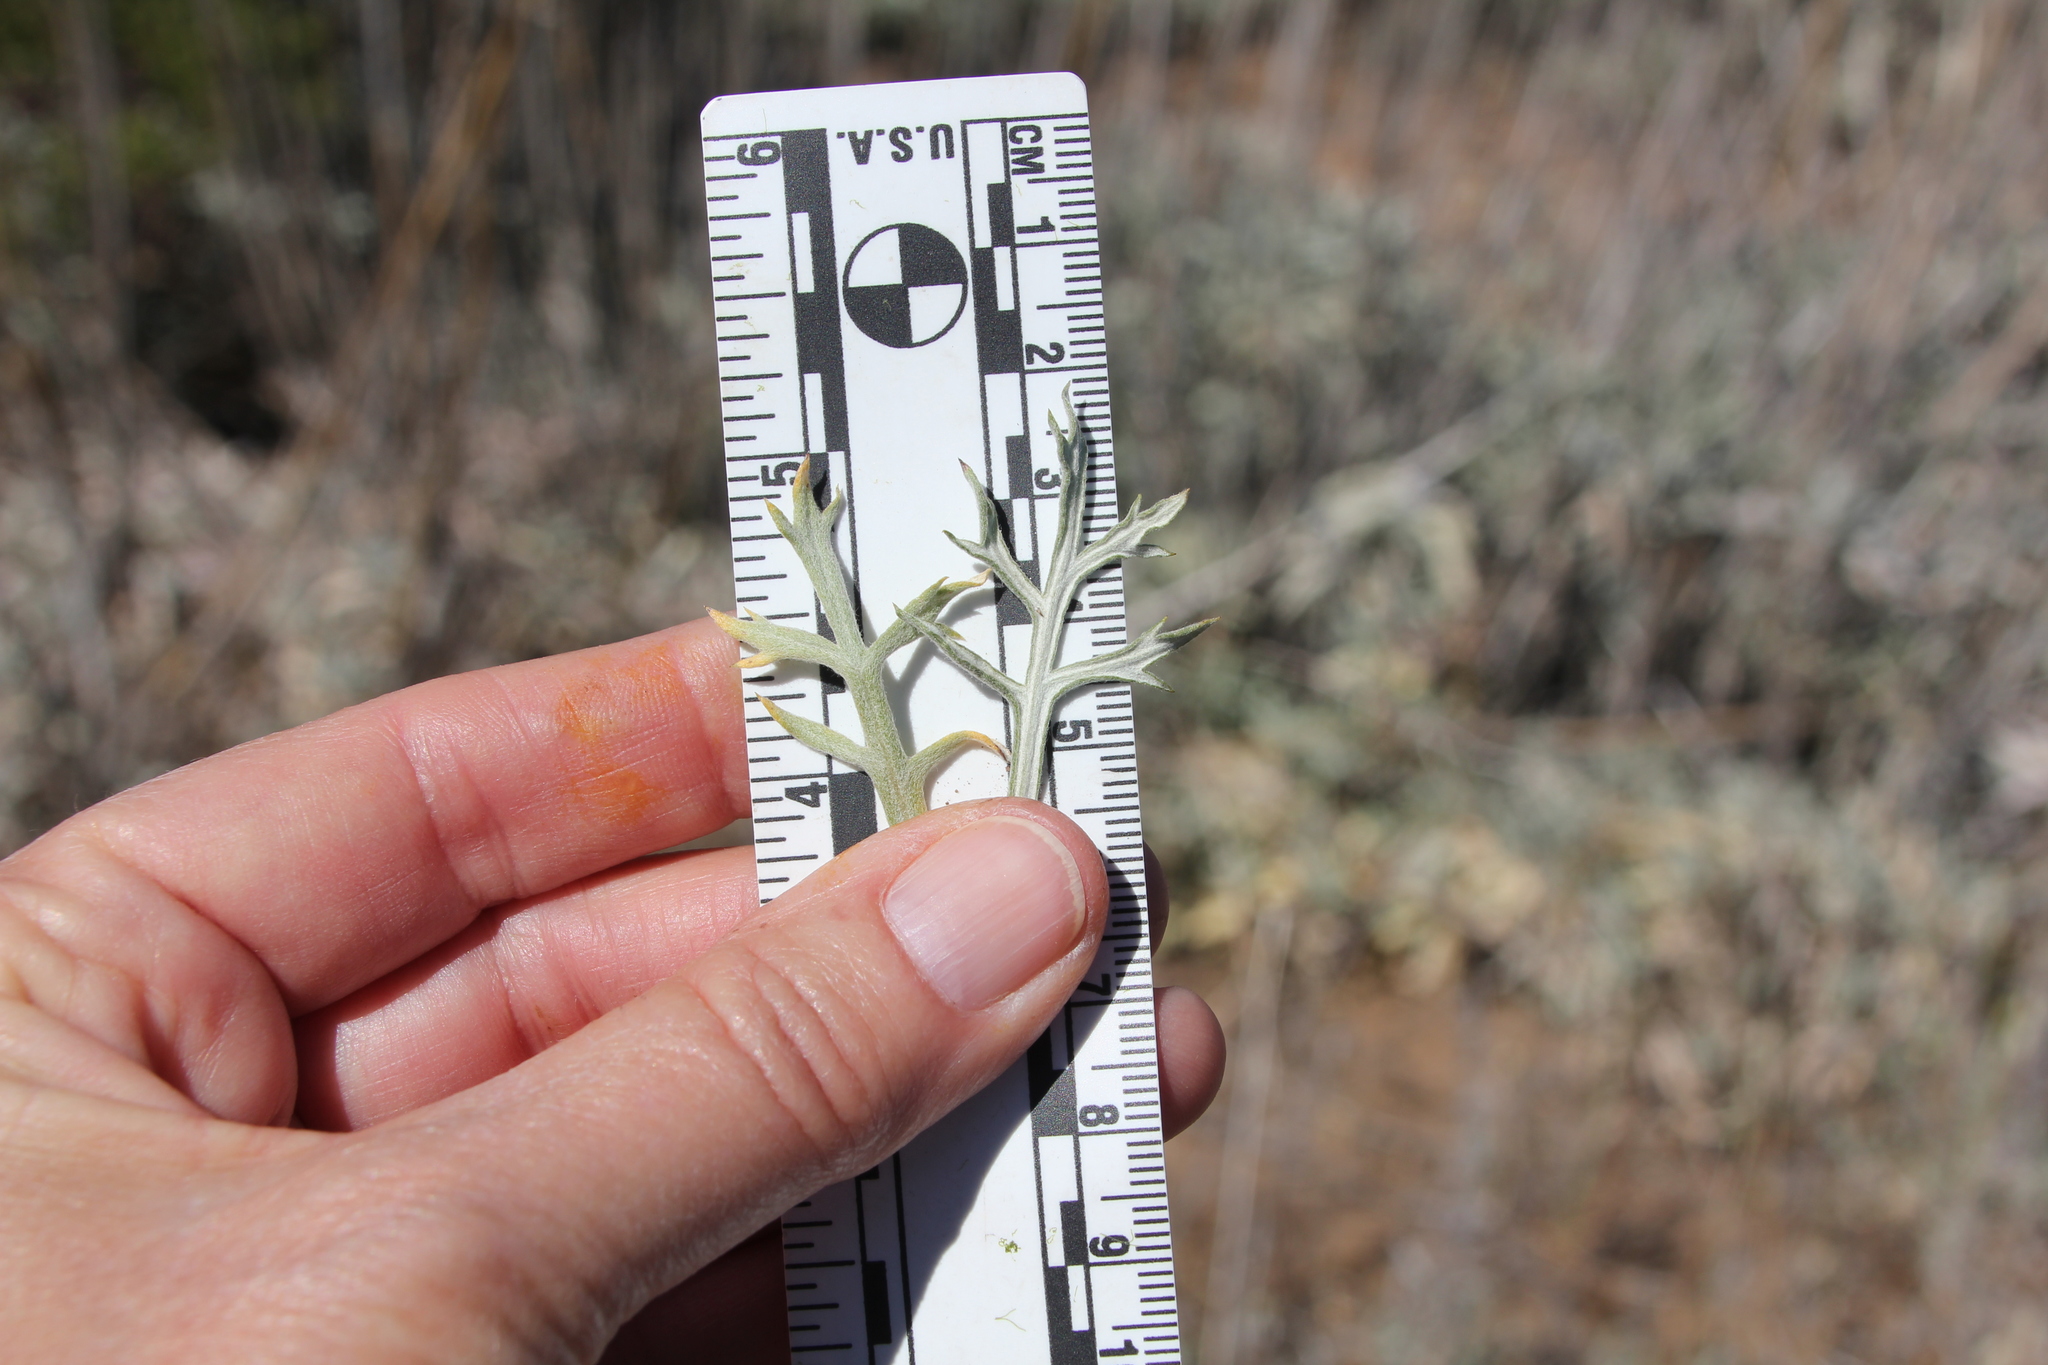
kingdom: Plantae
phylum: Tracheophyta
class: Magnoliopsida
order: Asterales
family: Asteraceae
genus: Artemisia
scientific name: Artemisia ludoviciana
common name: Western mugwort
